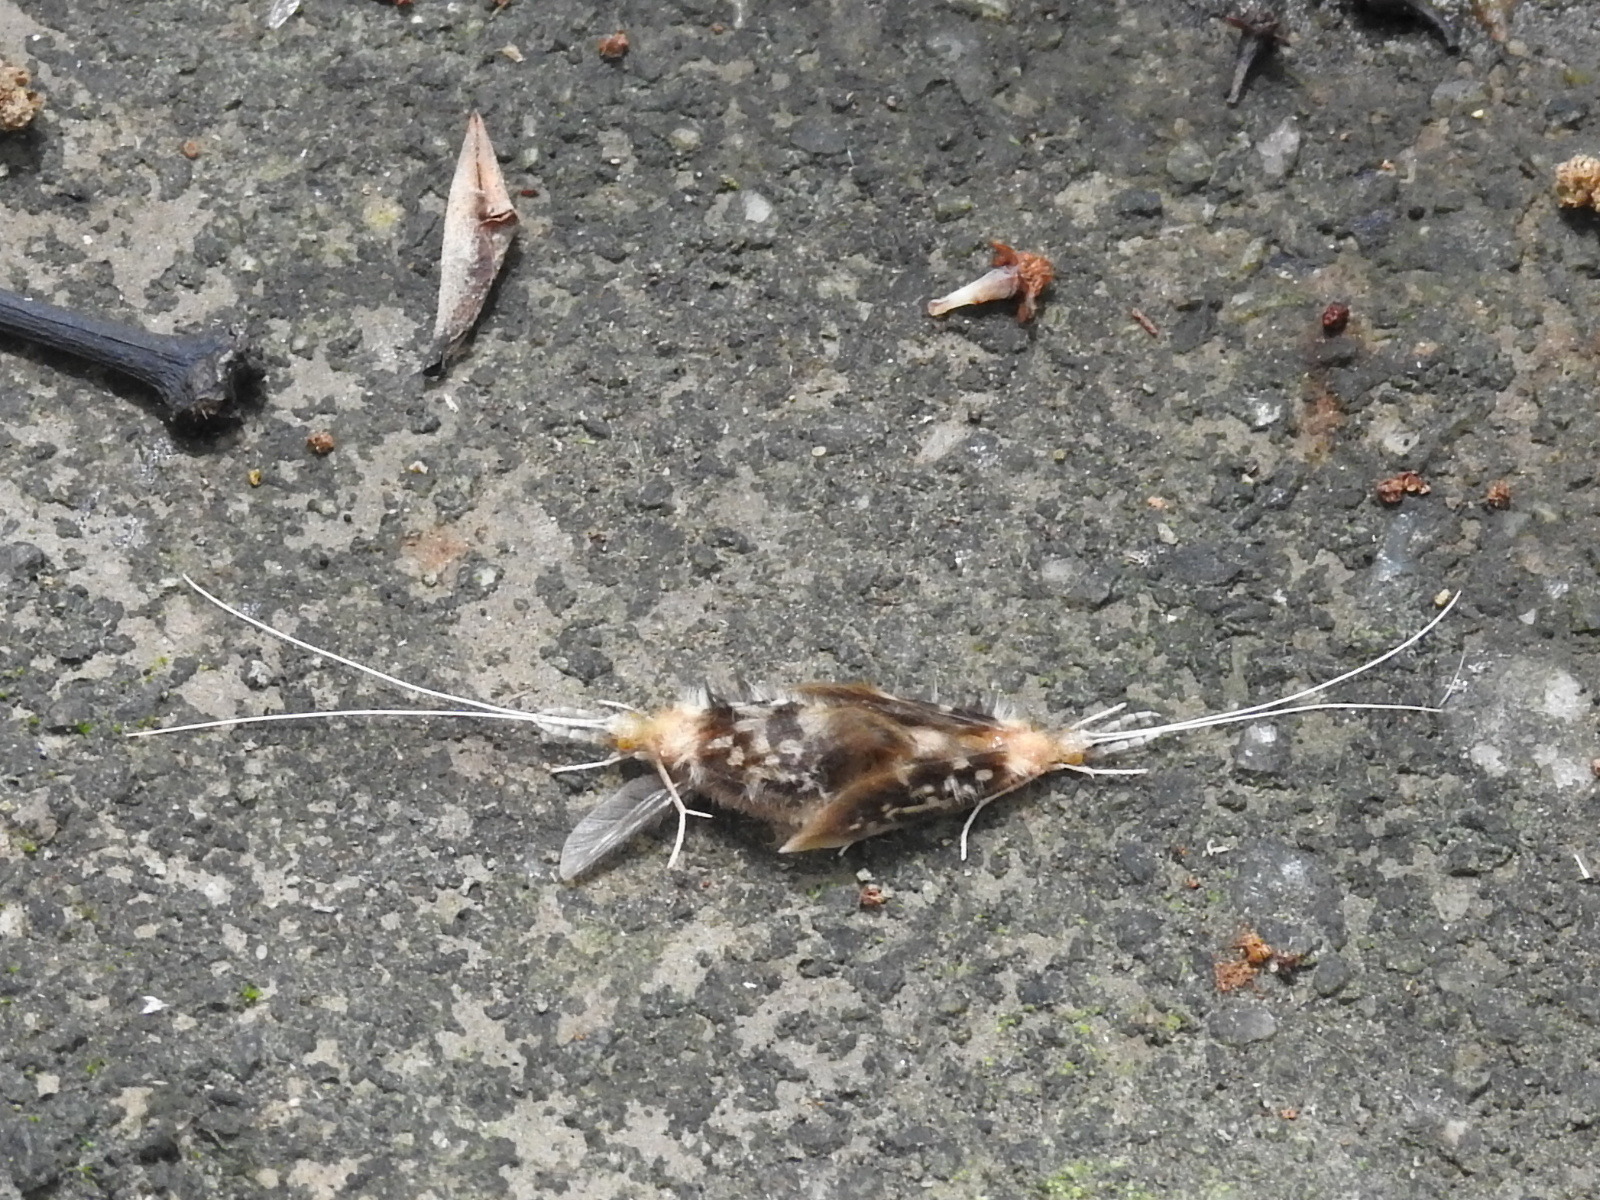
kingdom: Animalia
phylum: Arthropoda
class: Insecta
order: Trichoptera
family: Calamoceratidae
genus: Ganonema
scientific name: Ganonema
